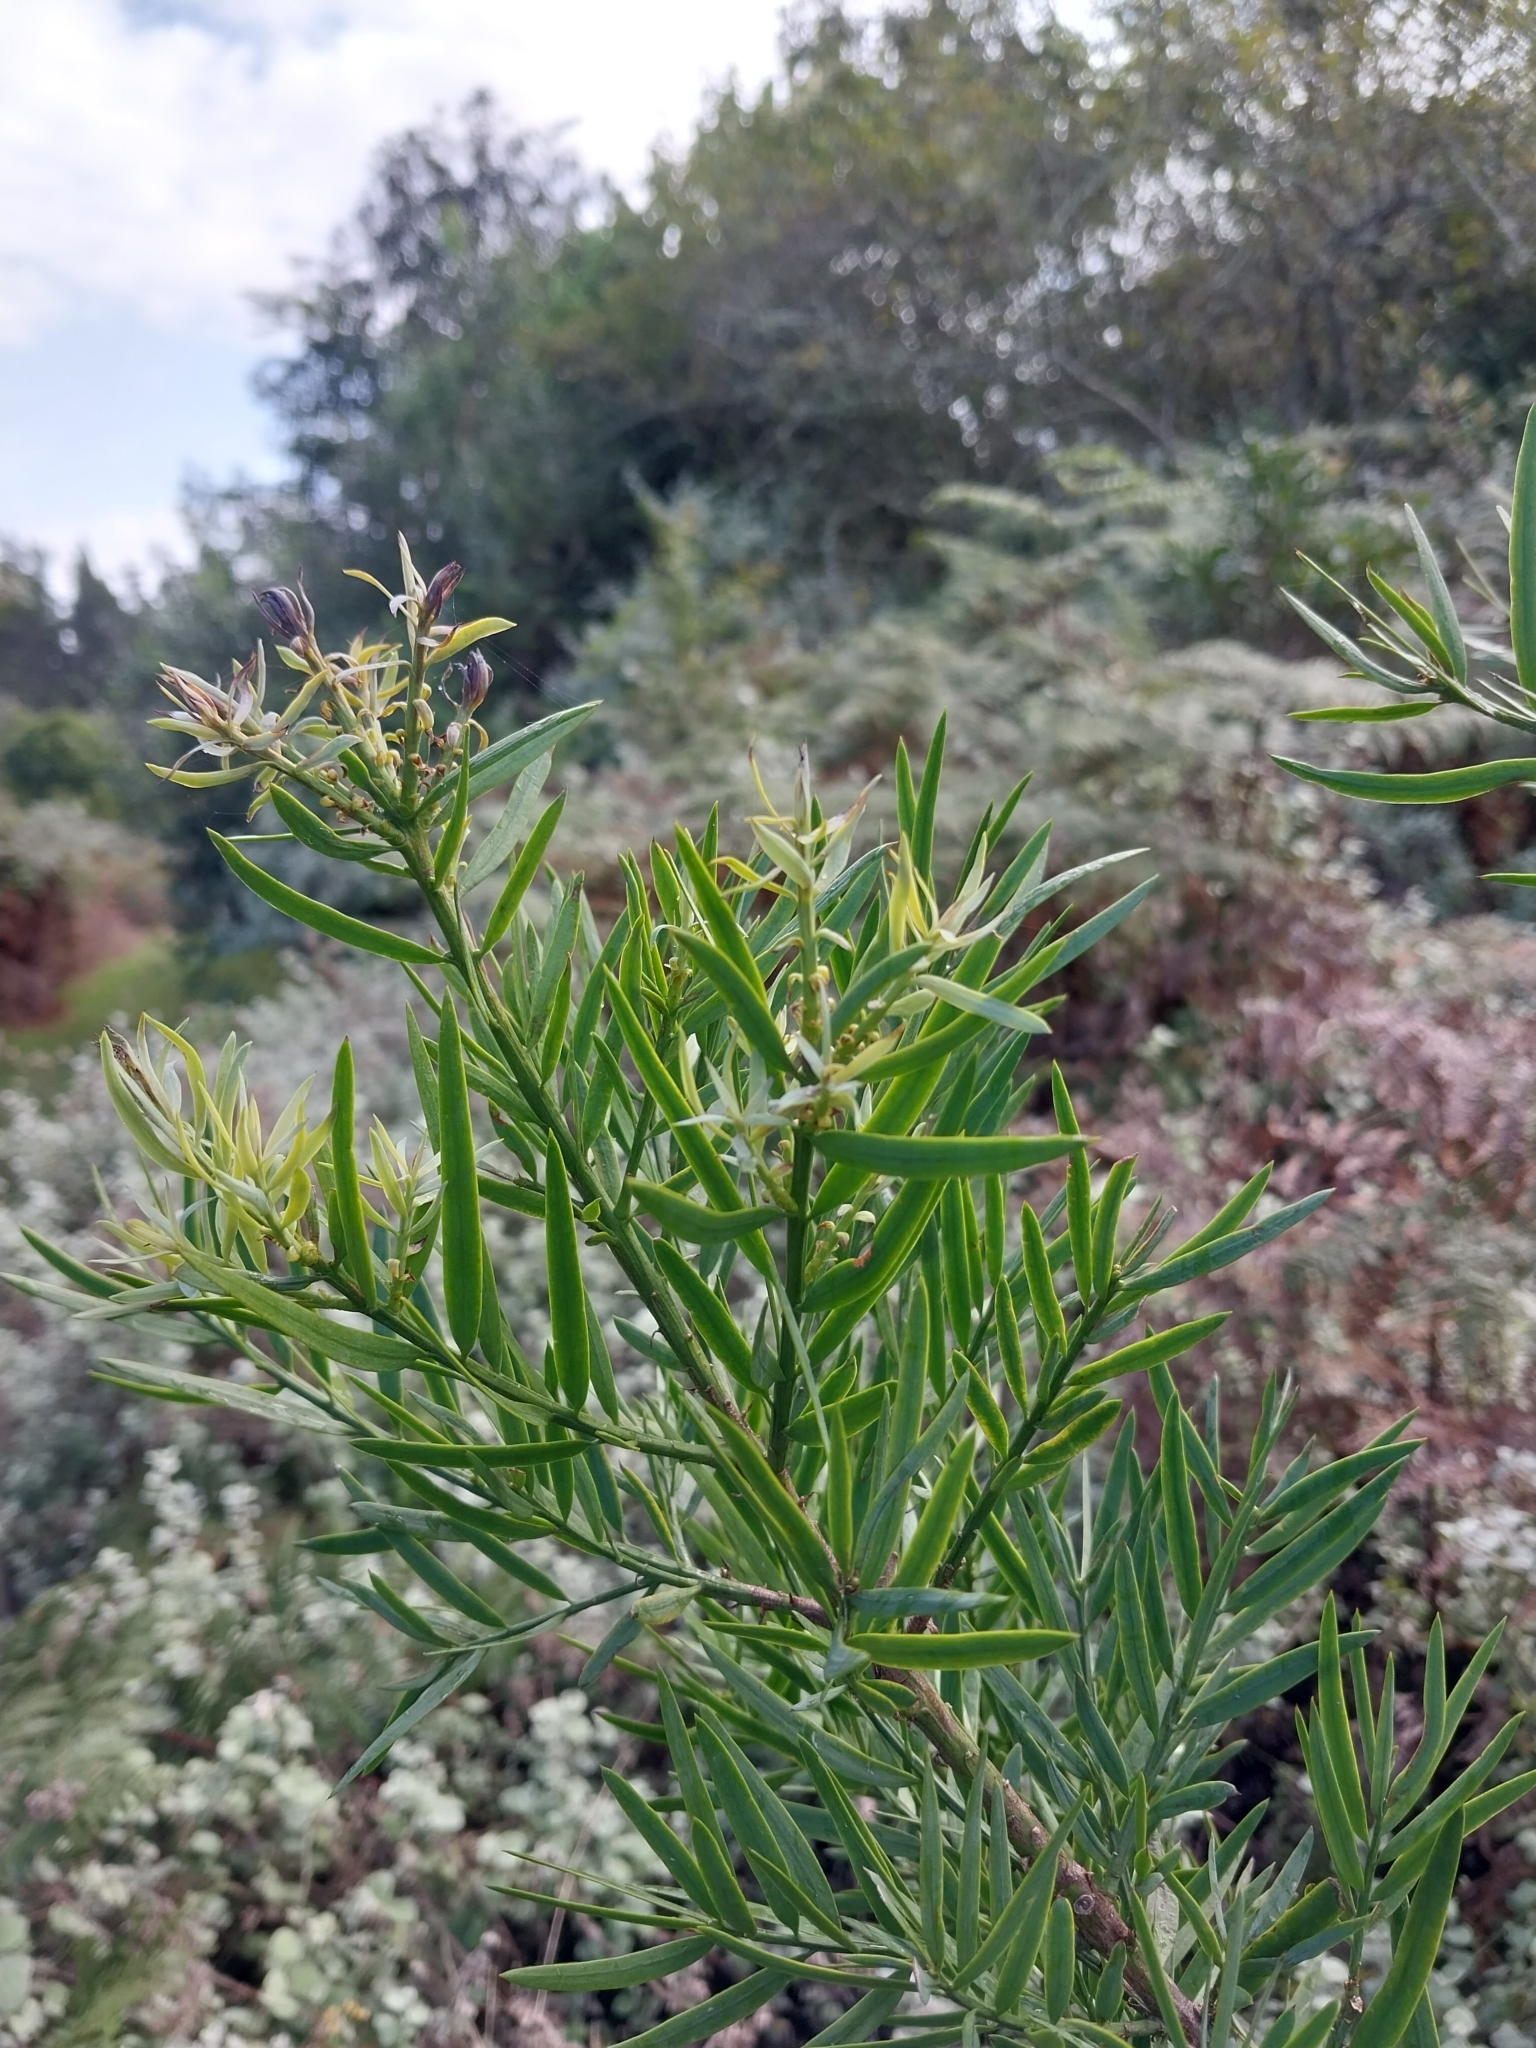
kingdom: Plantae
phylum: Tracheophyta
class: Pinopsida
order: Pinales
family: Podocarpaceae
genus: Afrocarpus
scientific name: Afrocarpus falcatus
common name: Bastard yellowwood
